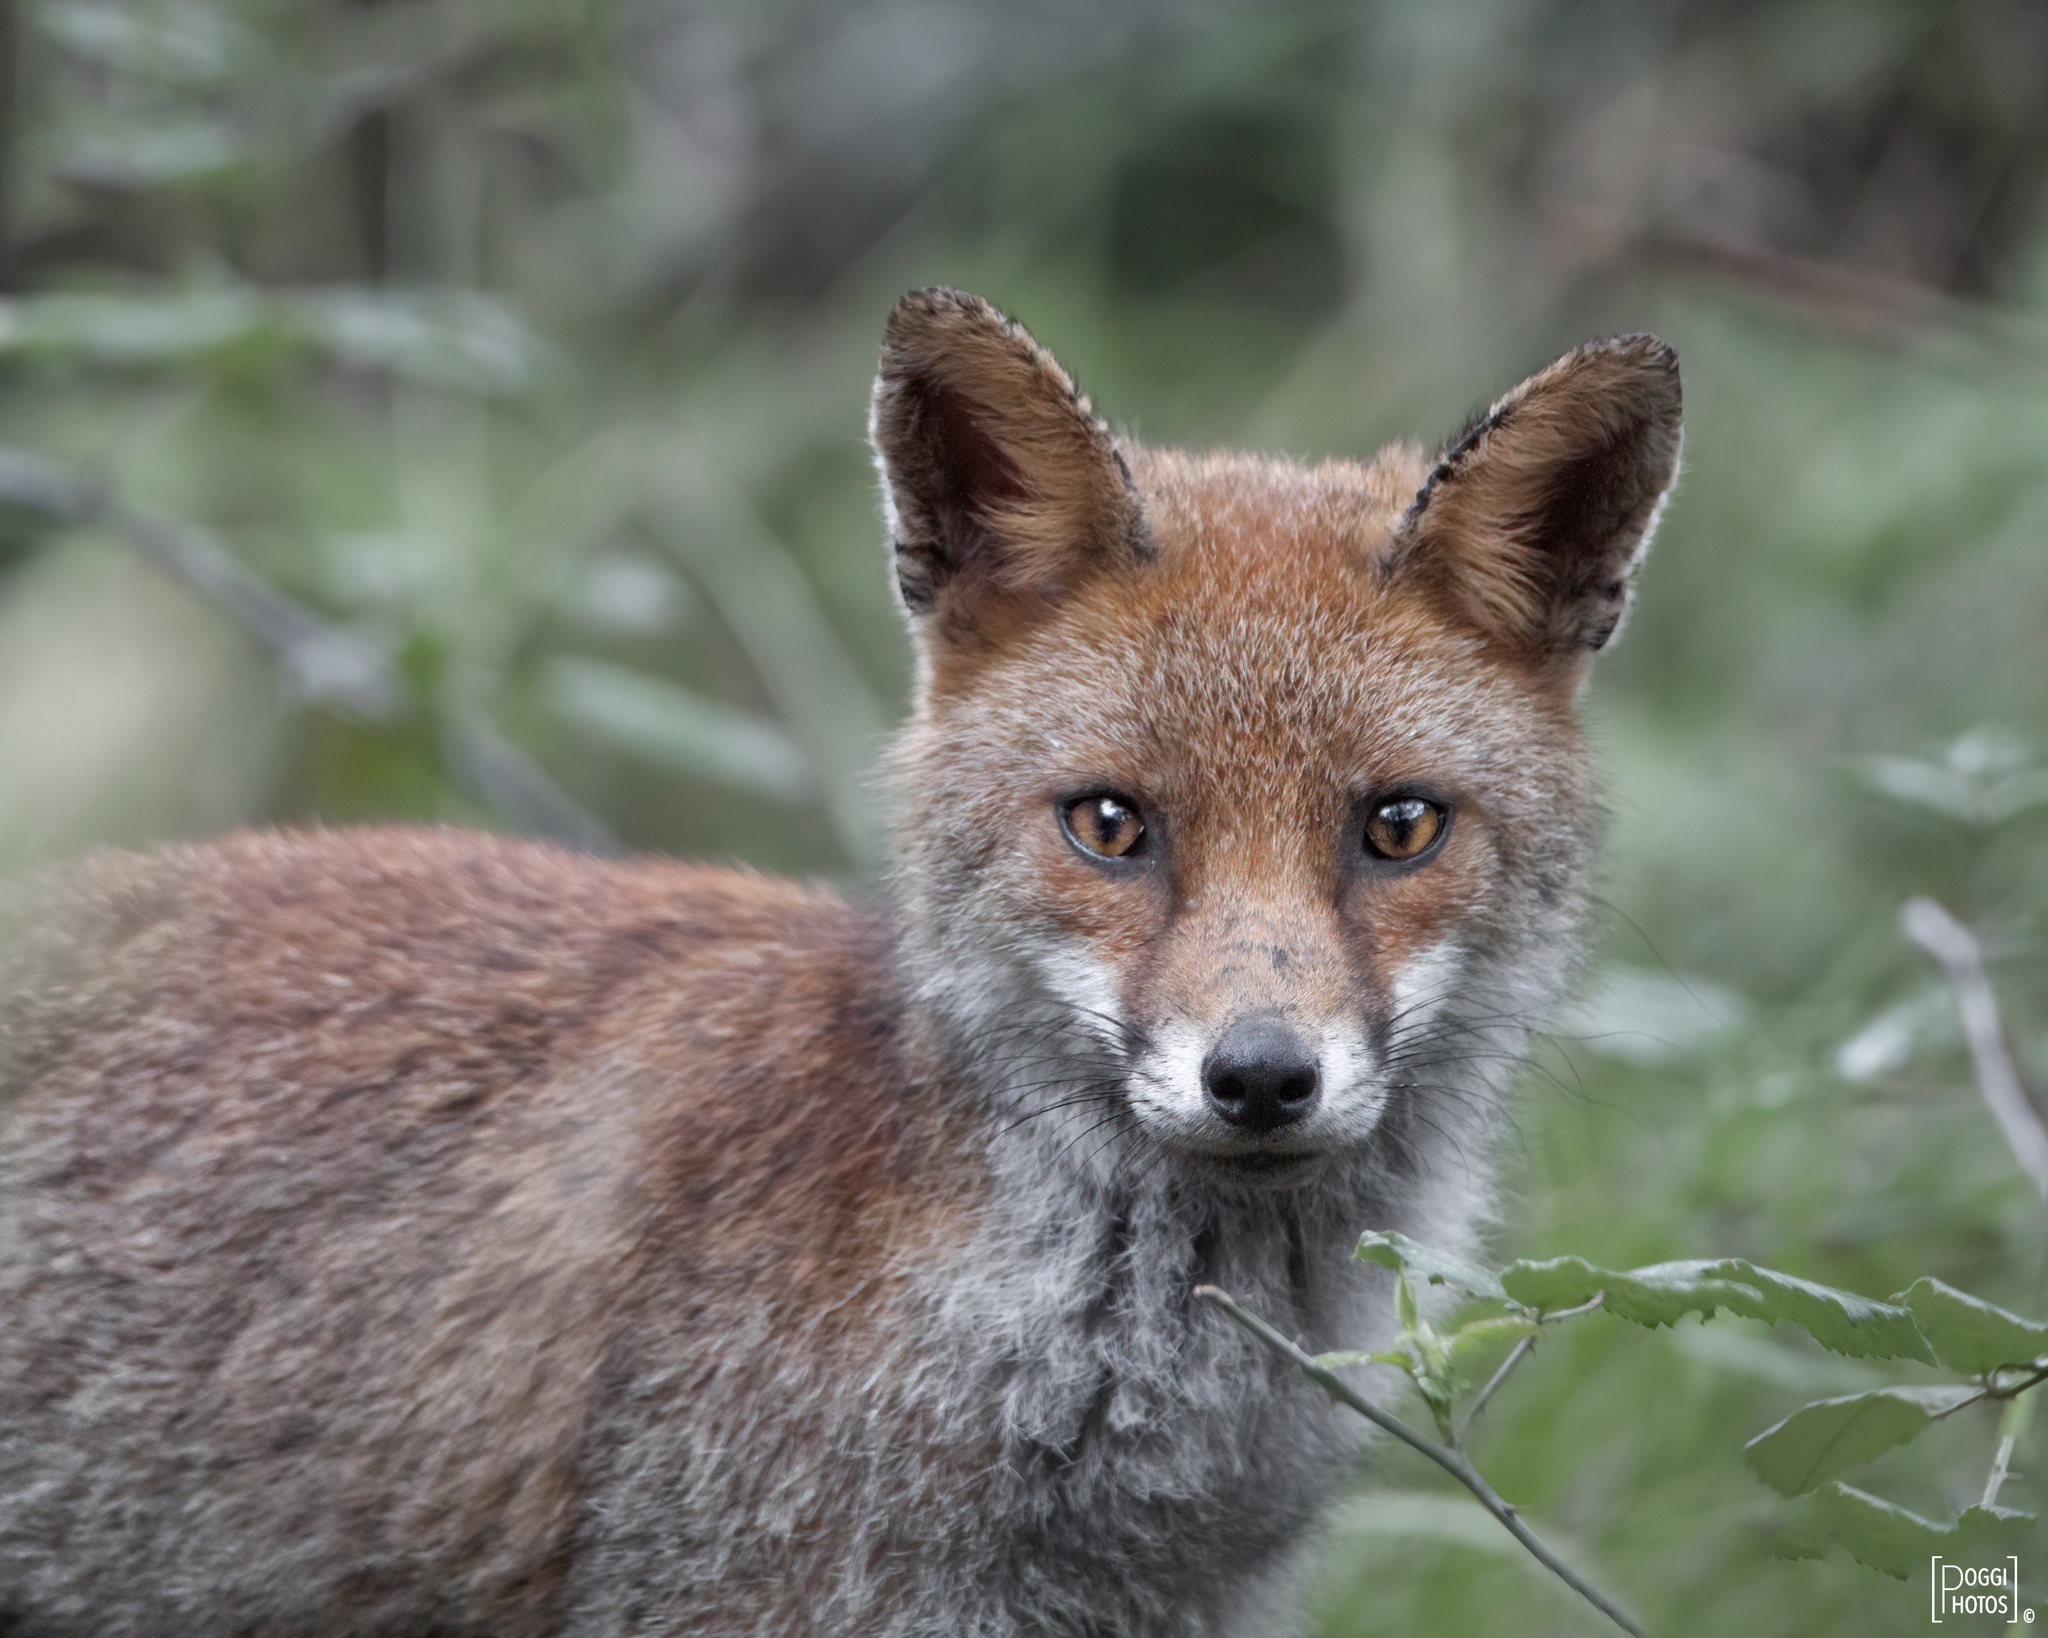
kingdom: Animalia
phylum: Chordata
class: Mammalia
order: Carnivora
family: Canidae
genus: Vulpes
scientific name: Vulpes vulpes
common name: Red fox
